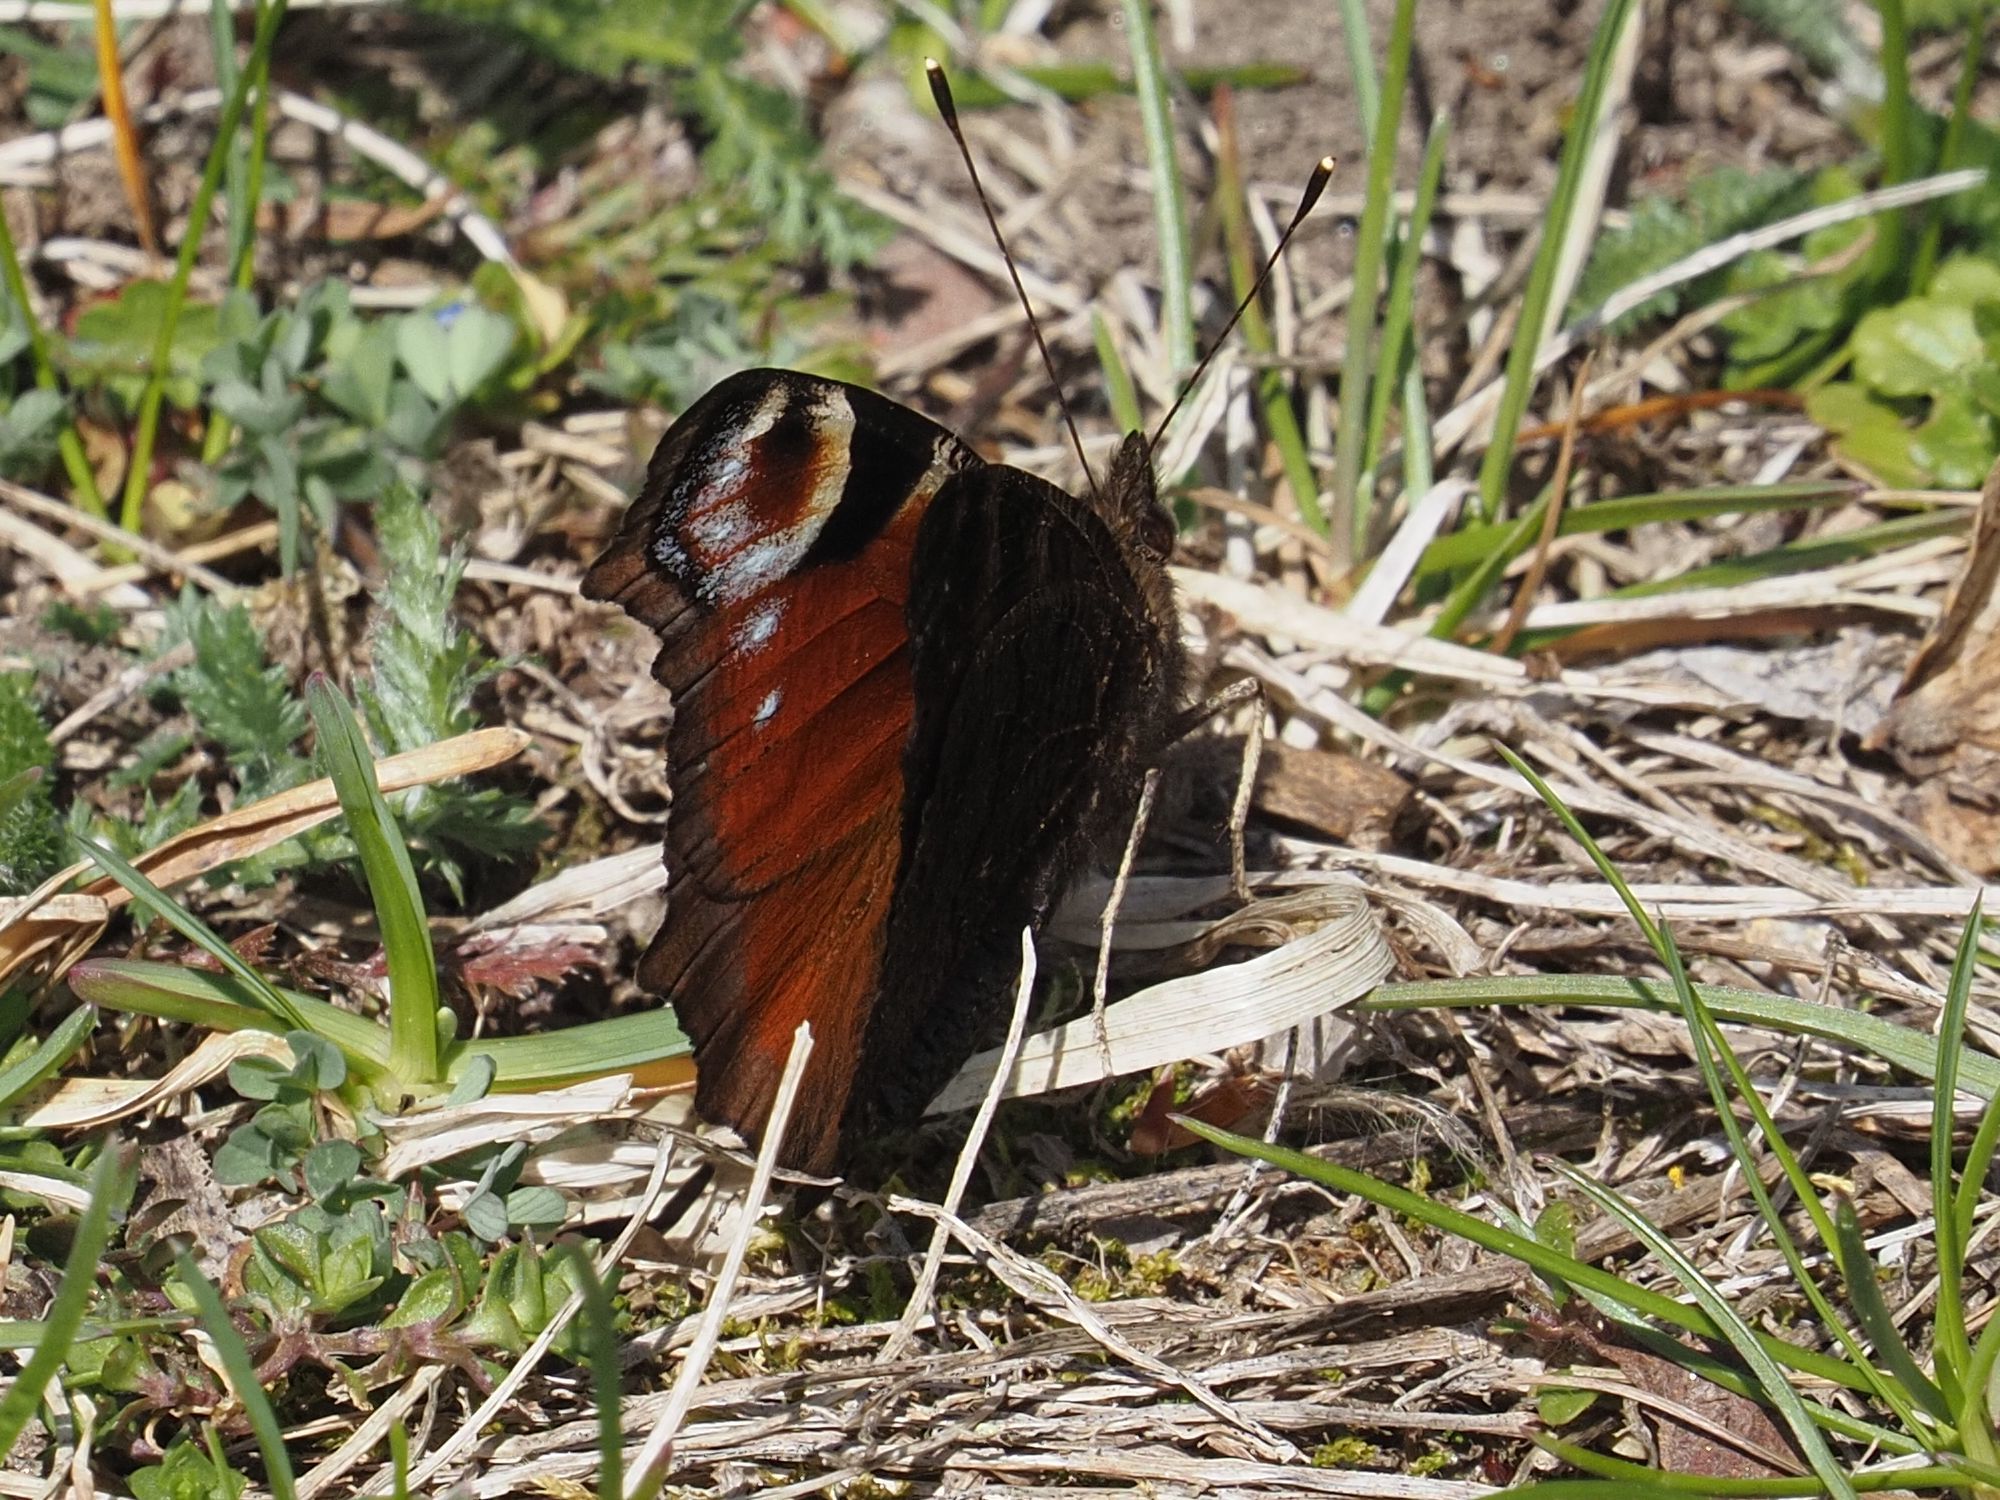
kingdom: Animalia
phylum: Arthropoda
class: Insecta
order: Lepidoptera
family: Nymphalidae
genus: Aglais
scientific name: Aglais io
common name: Peacock
